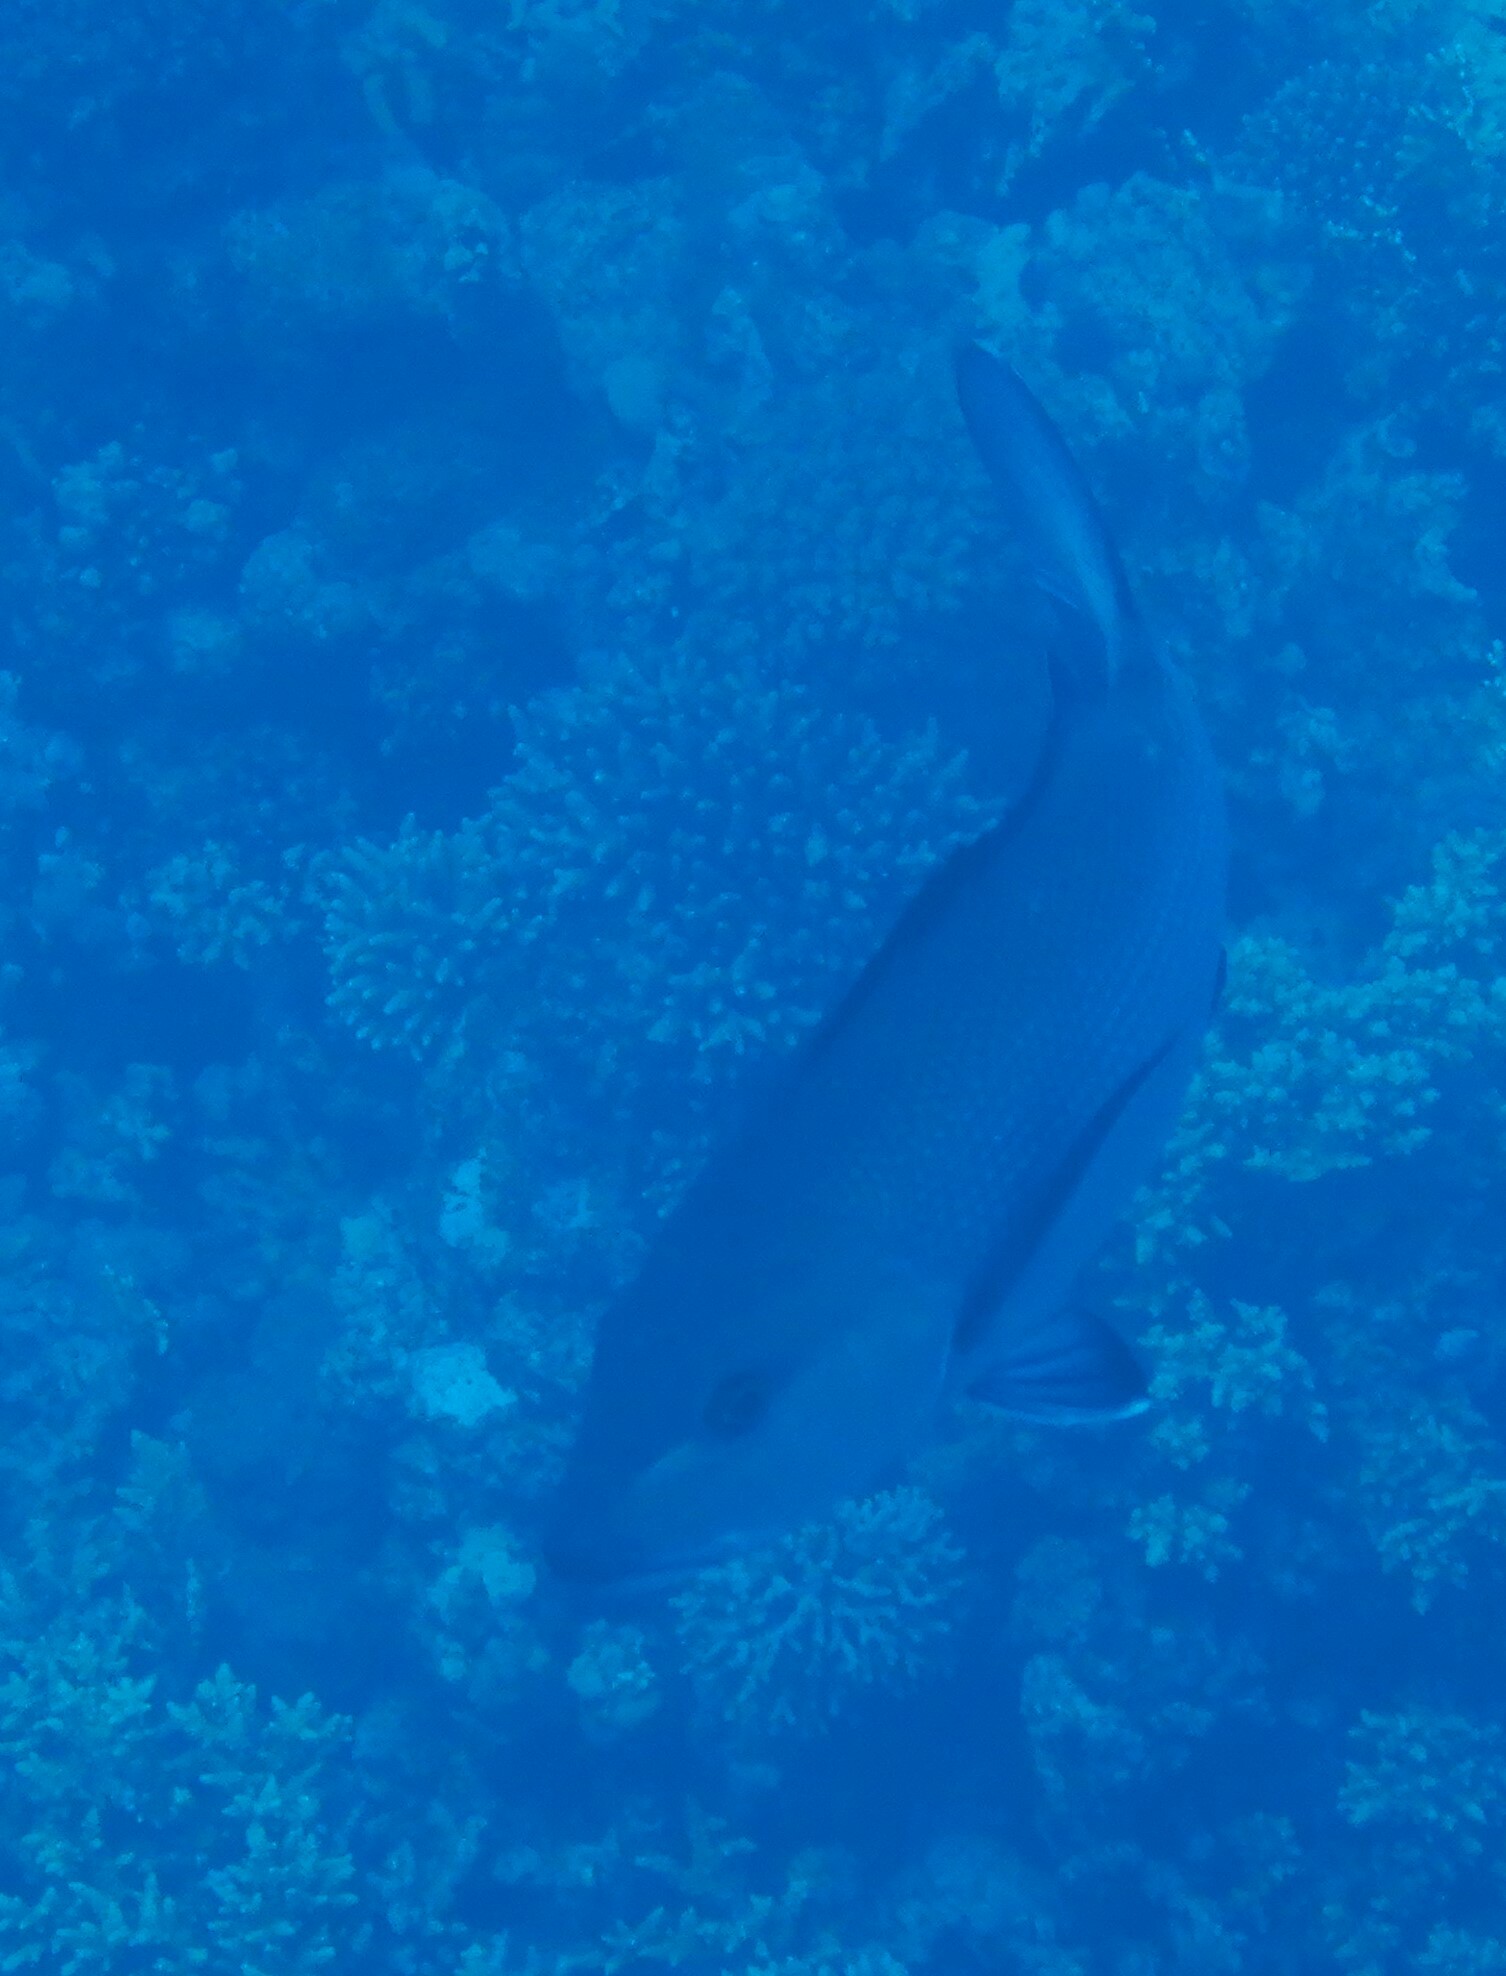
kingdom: Animalia
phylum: Chordata
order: Perciformes
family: Lutjanidae
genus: Lutjanus
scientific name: Lutjanus bohar
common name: Red bass
